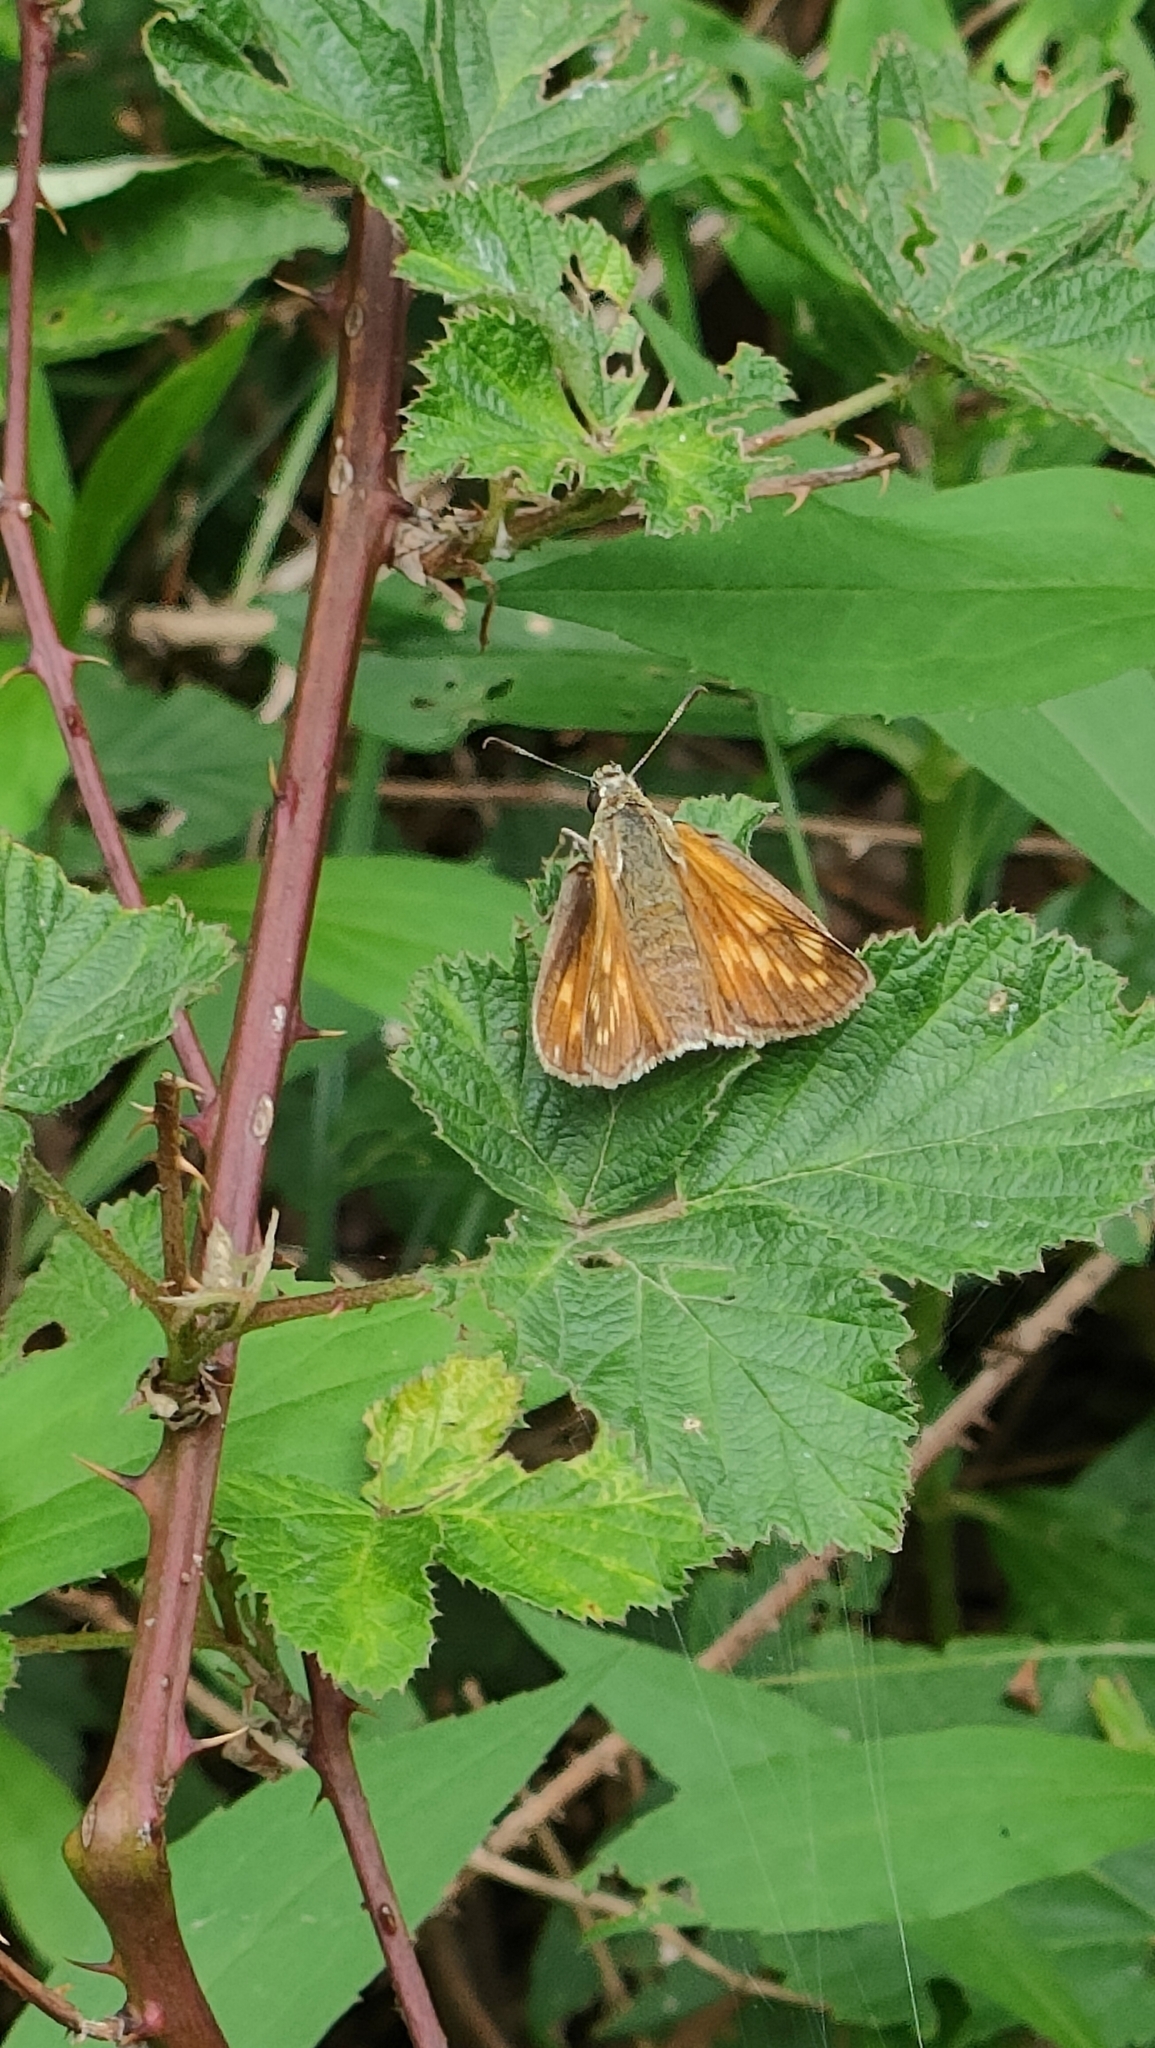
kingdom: Animalia
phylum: Arthropoda
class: Insecta
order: Lepidoptera
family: Hesperiidae
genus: Ochlodes
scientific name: Ochlodes venata
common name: Large skipper
